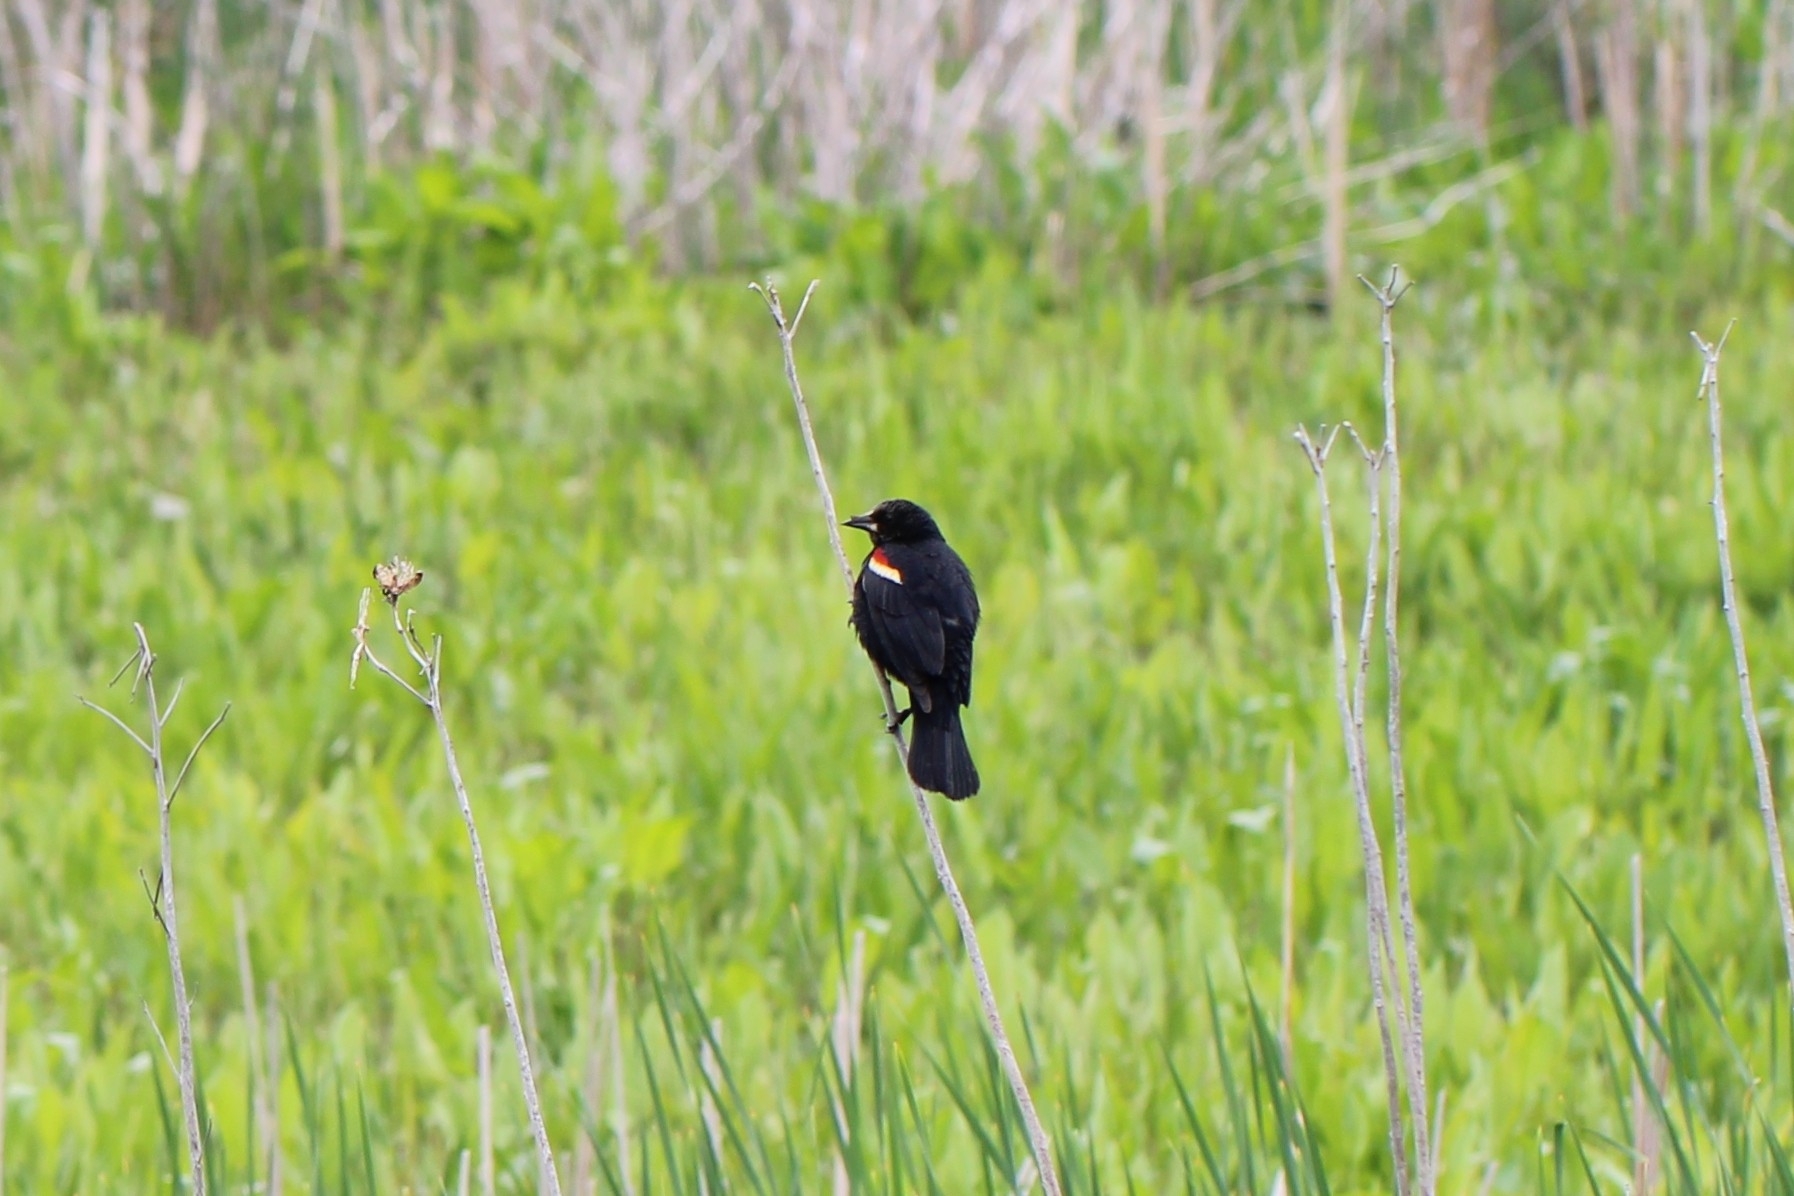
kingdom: Animalia
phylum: Chordata
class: Aves
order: Passeriformes
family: Icteridae
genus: Agelaius
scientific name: Agelaius phoeniceus
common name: Red-winged blackbird
